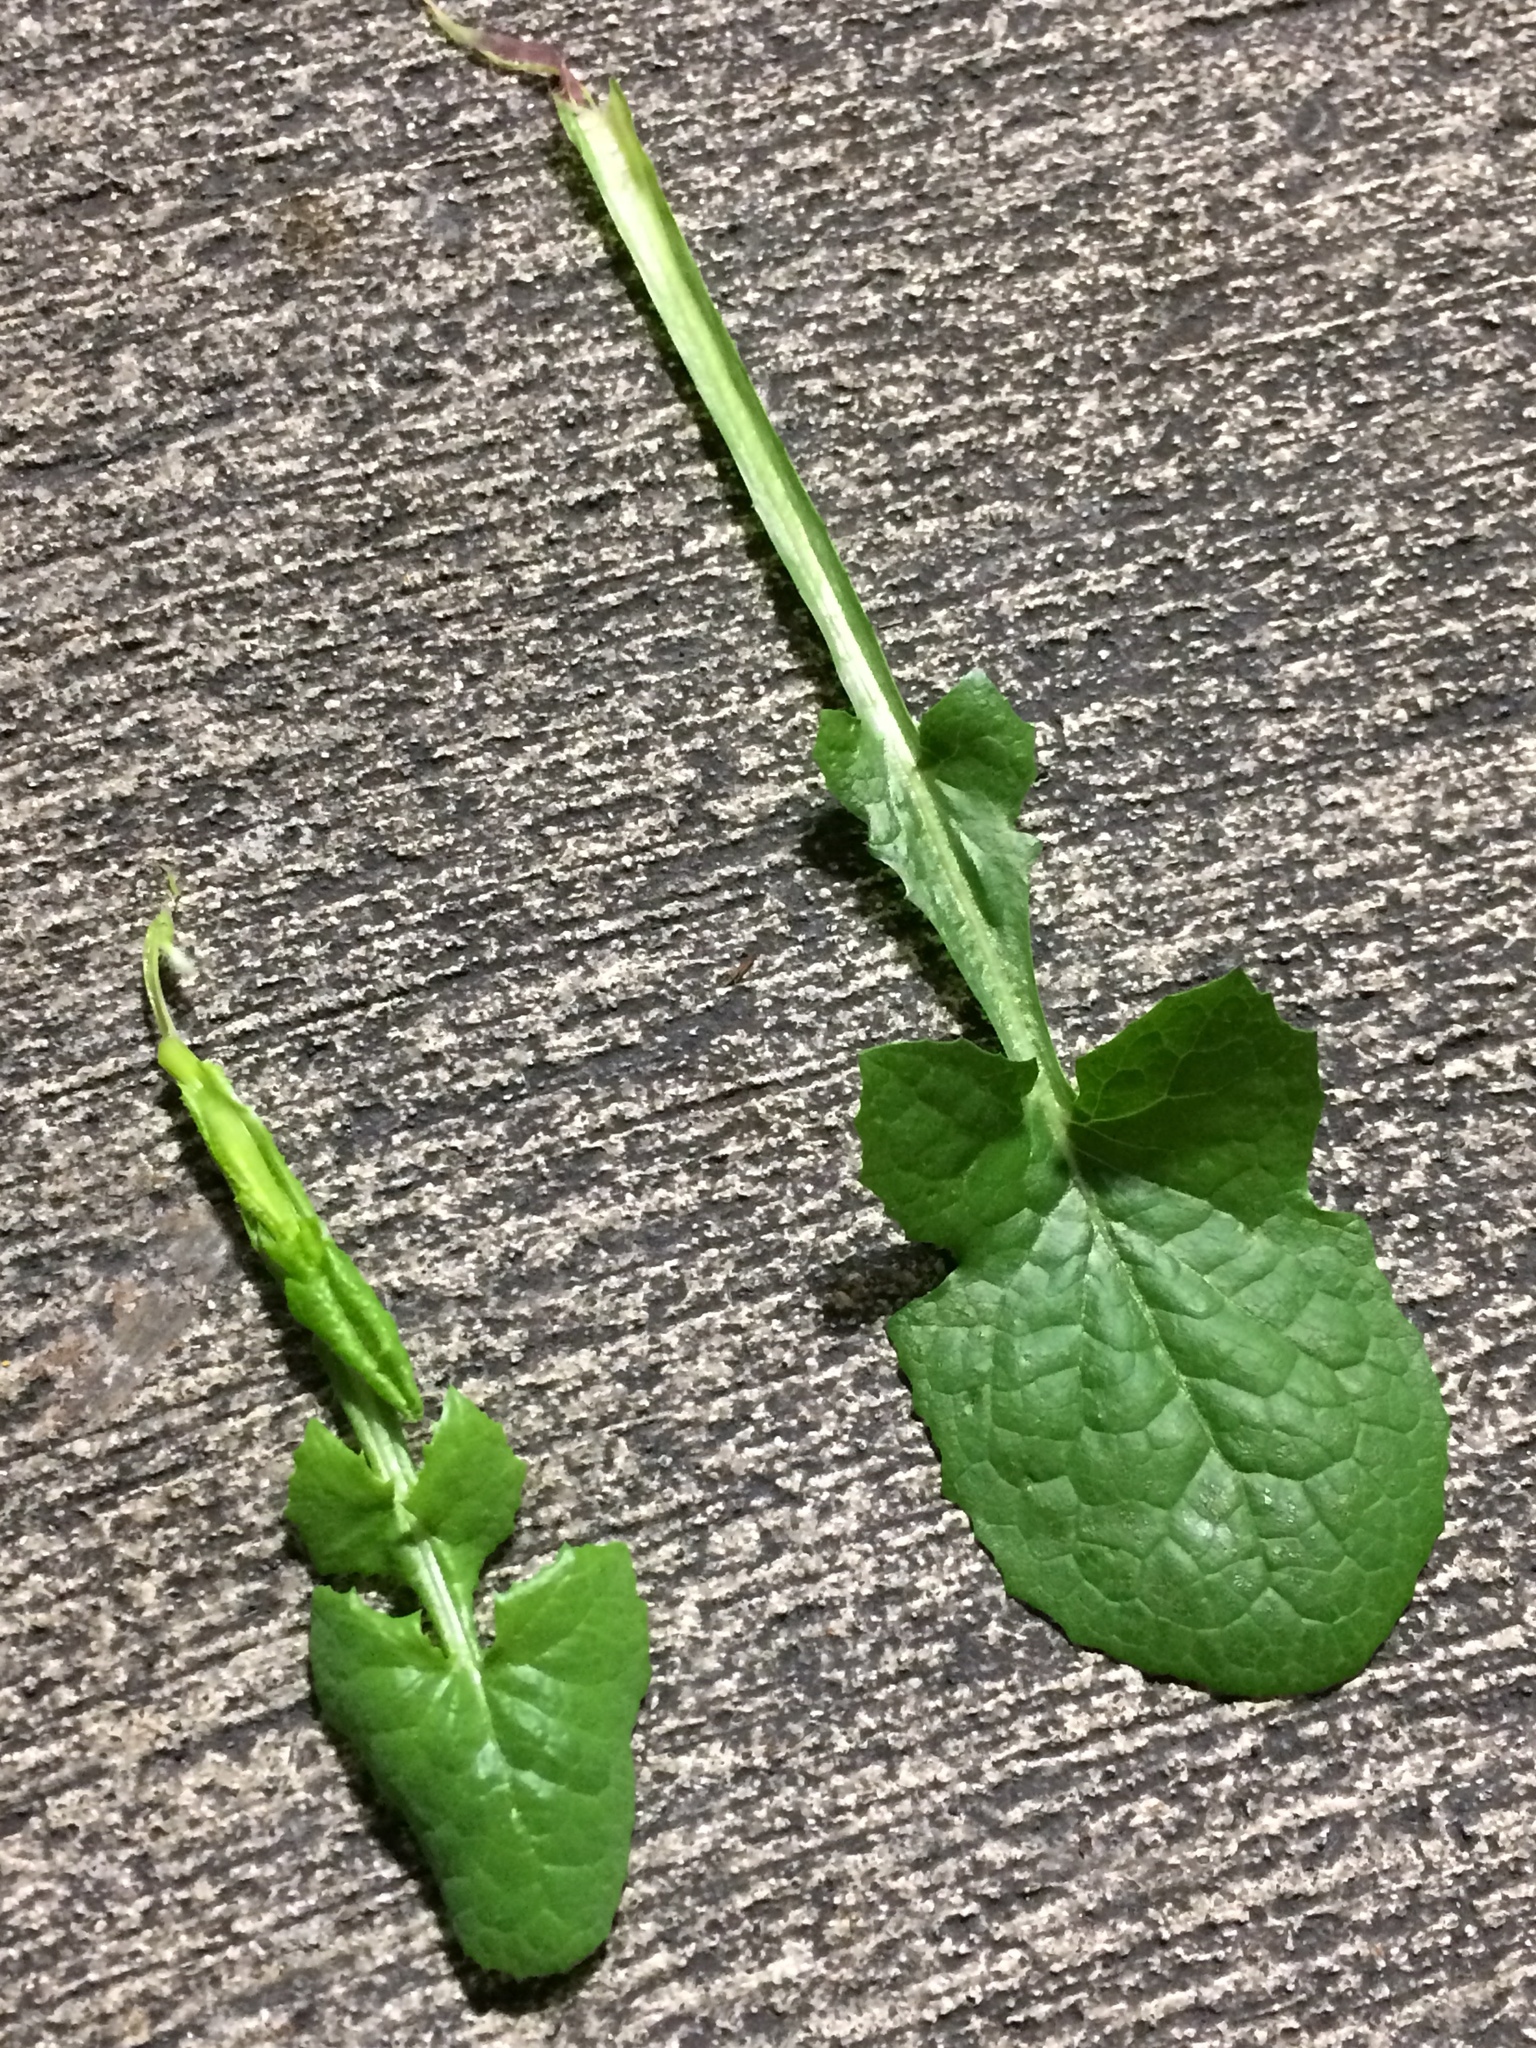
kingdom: Plantae
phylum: Tracheophyta
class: Magnoliopsida
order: Asterales
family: Asteraceae
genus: Sonchus
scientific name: Sonchus oleraceus
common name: Common sowthistle
